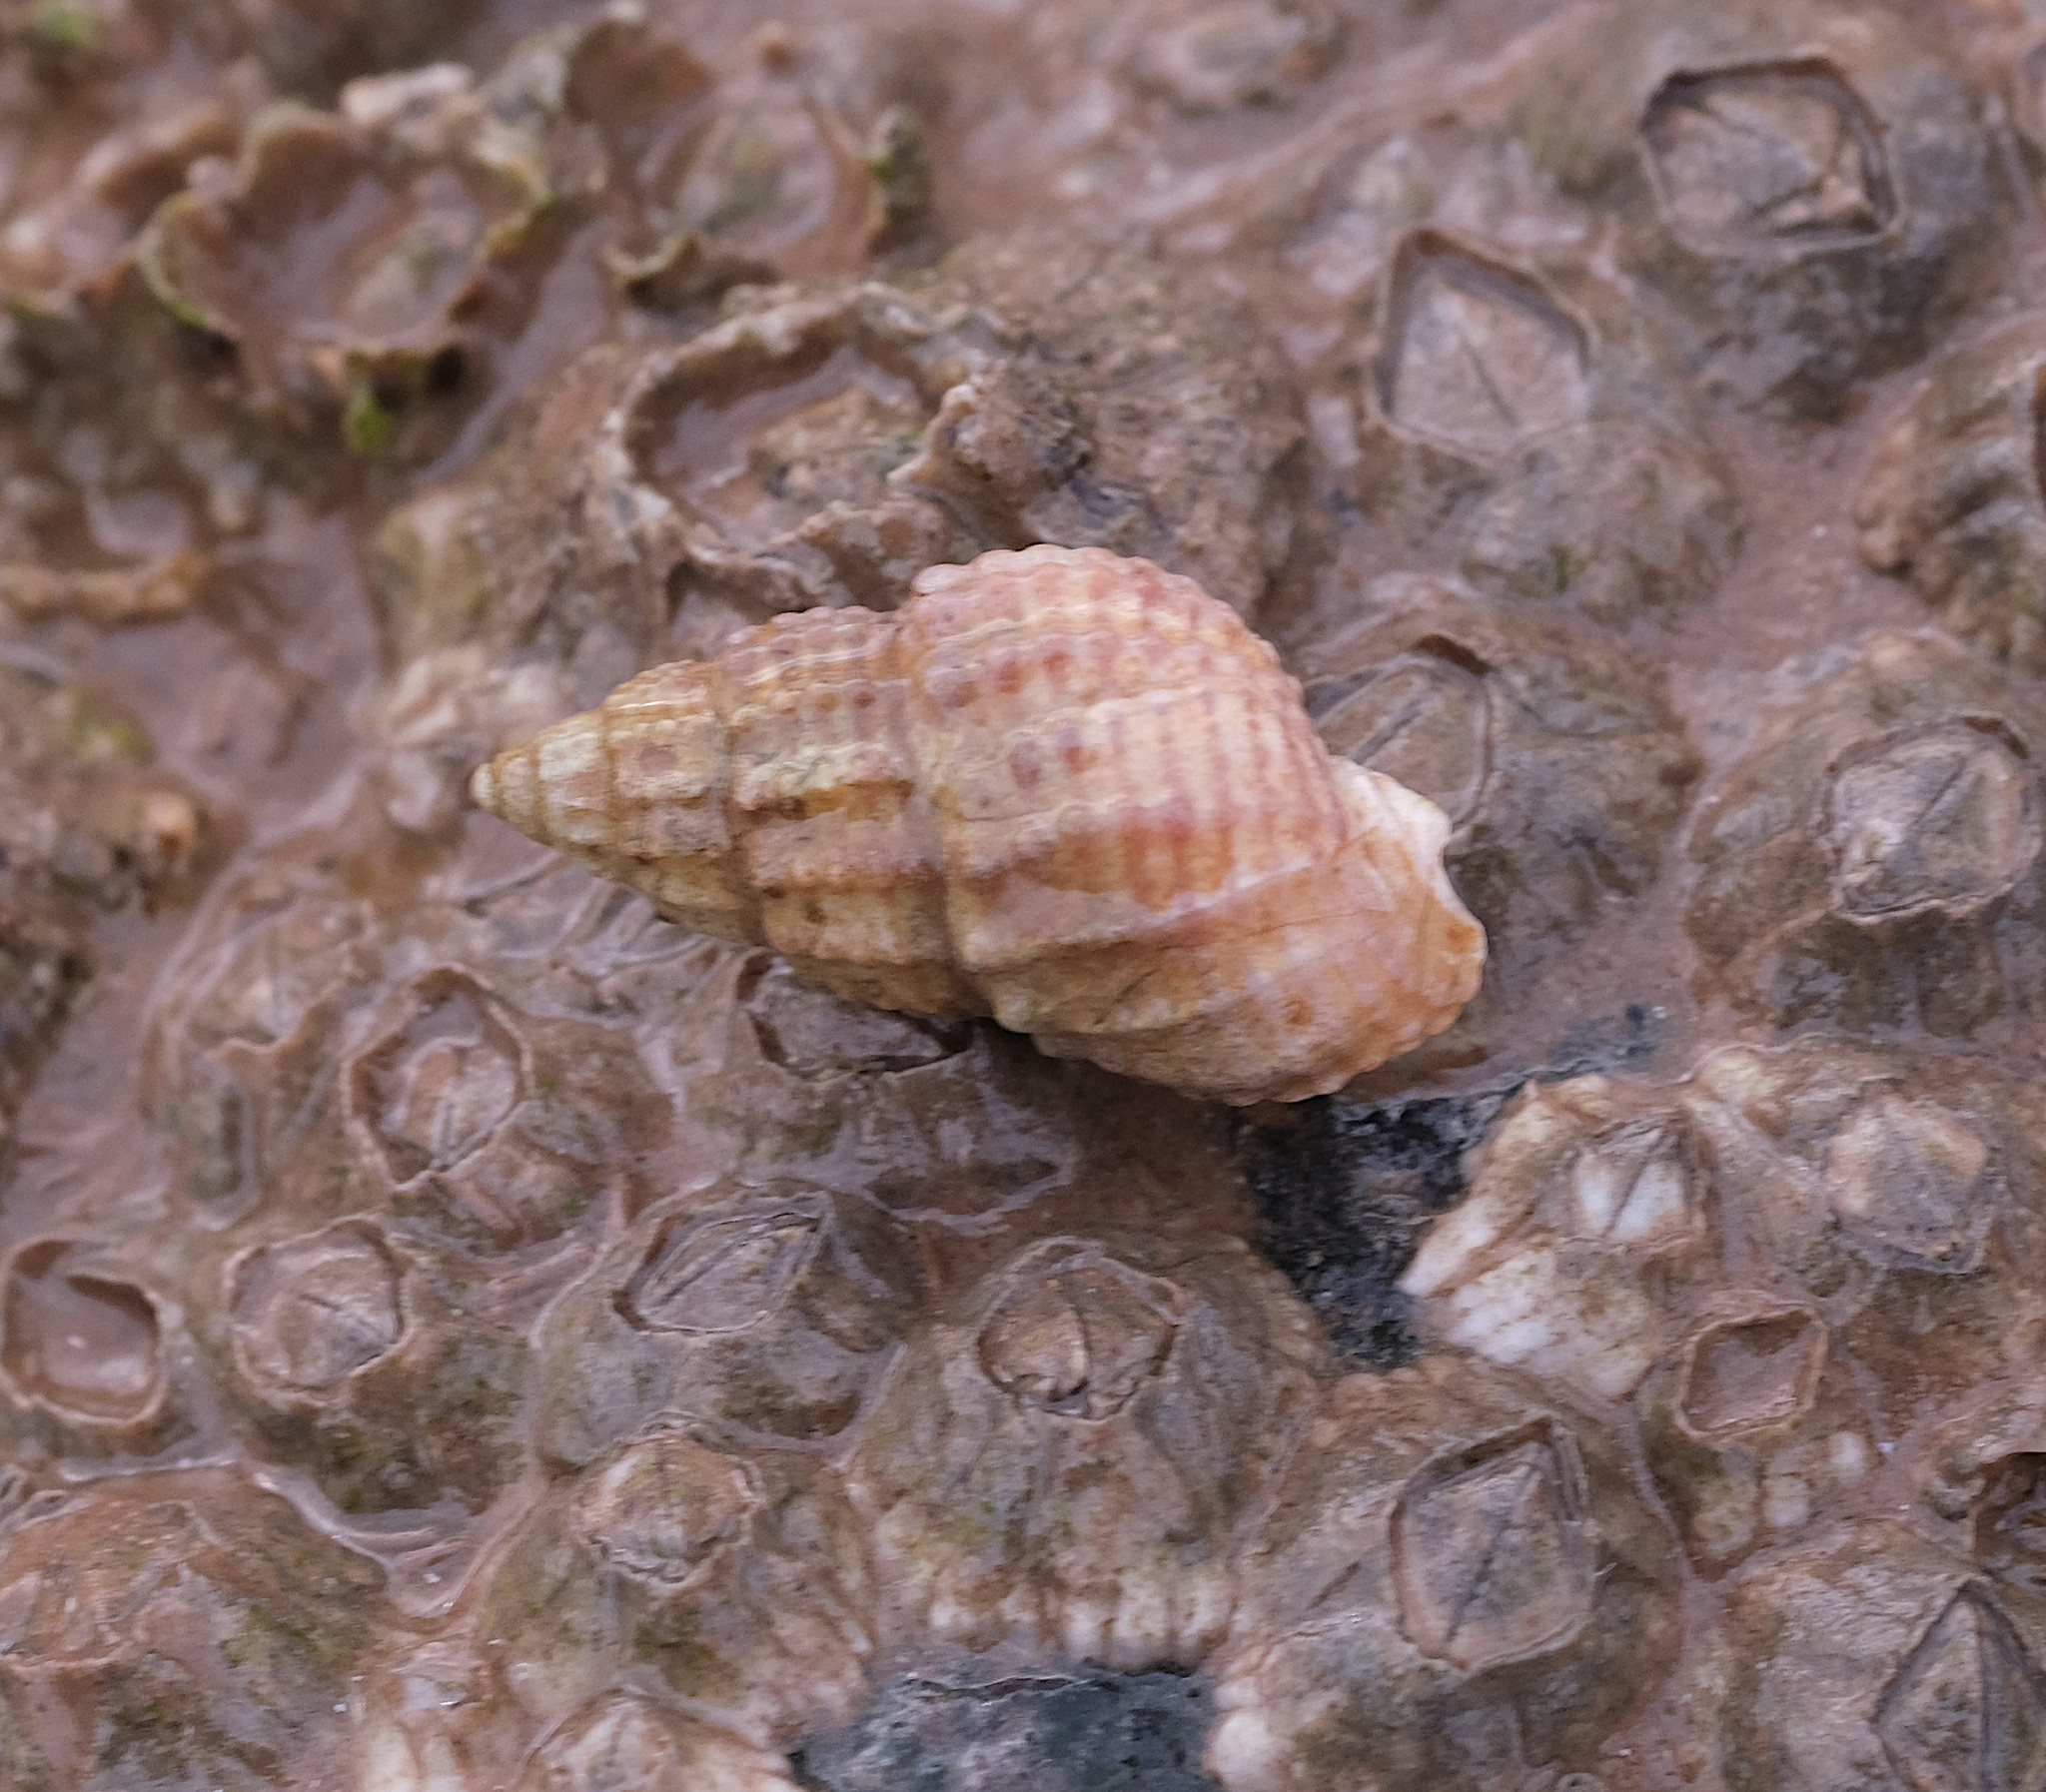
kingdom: Animalia
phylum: Mollusca
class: Gastropoda
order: Neogastropoda
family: Nassariidae
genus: Ilyanassa
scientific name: Ilyanassa trivittata
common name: Three-line mudsnail
